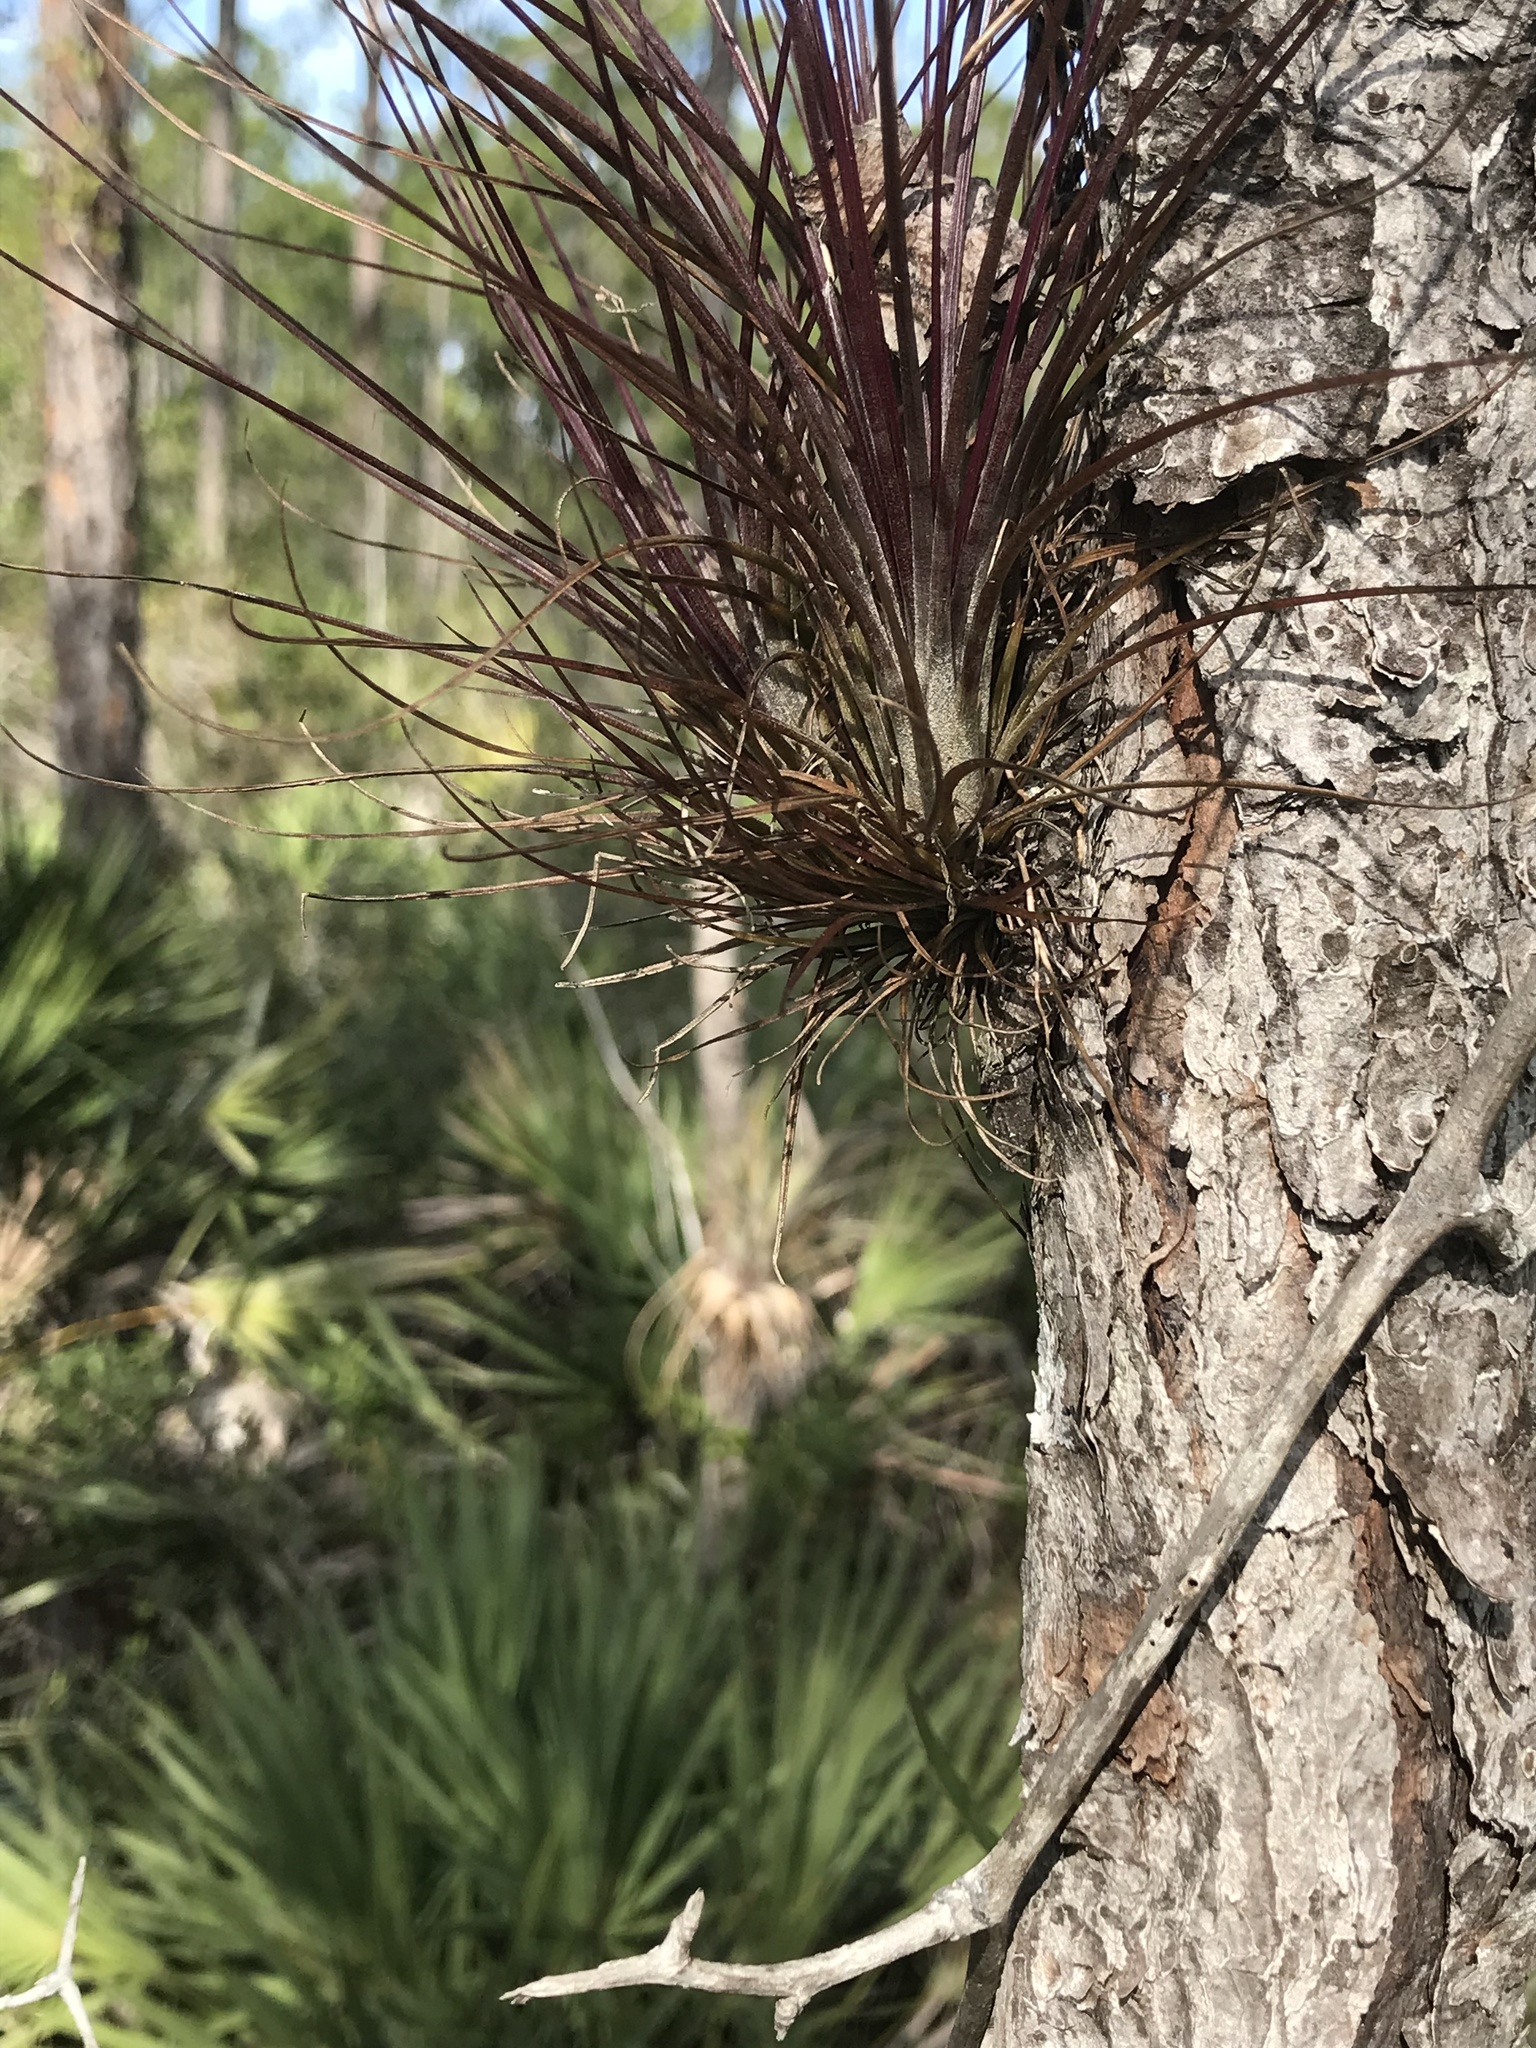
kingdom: Plantae
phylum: Tracheophyta
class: Liliopsida
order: Poales
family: Bromeliaceae
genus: Tillandsia
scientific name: Tillandsia setacea
